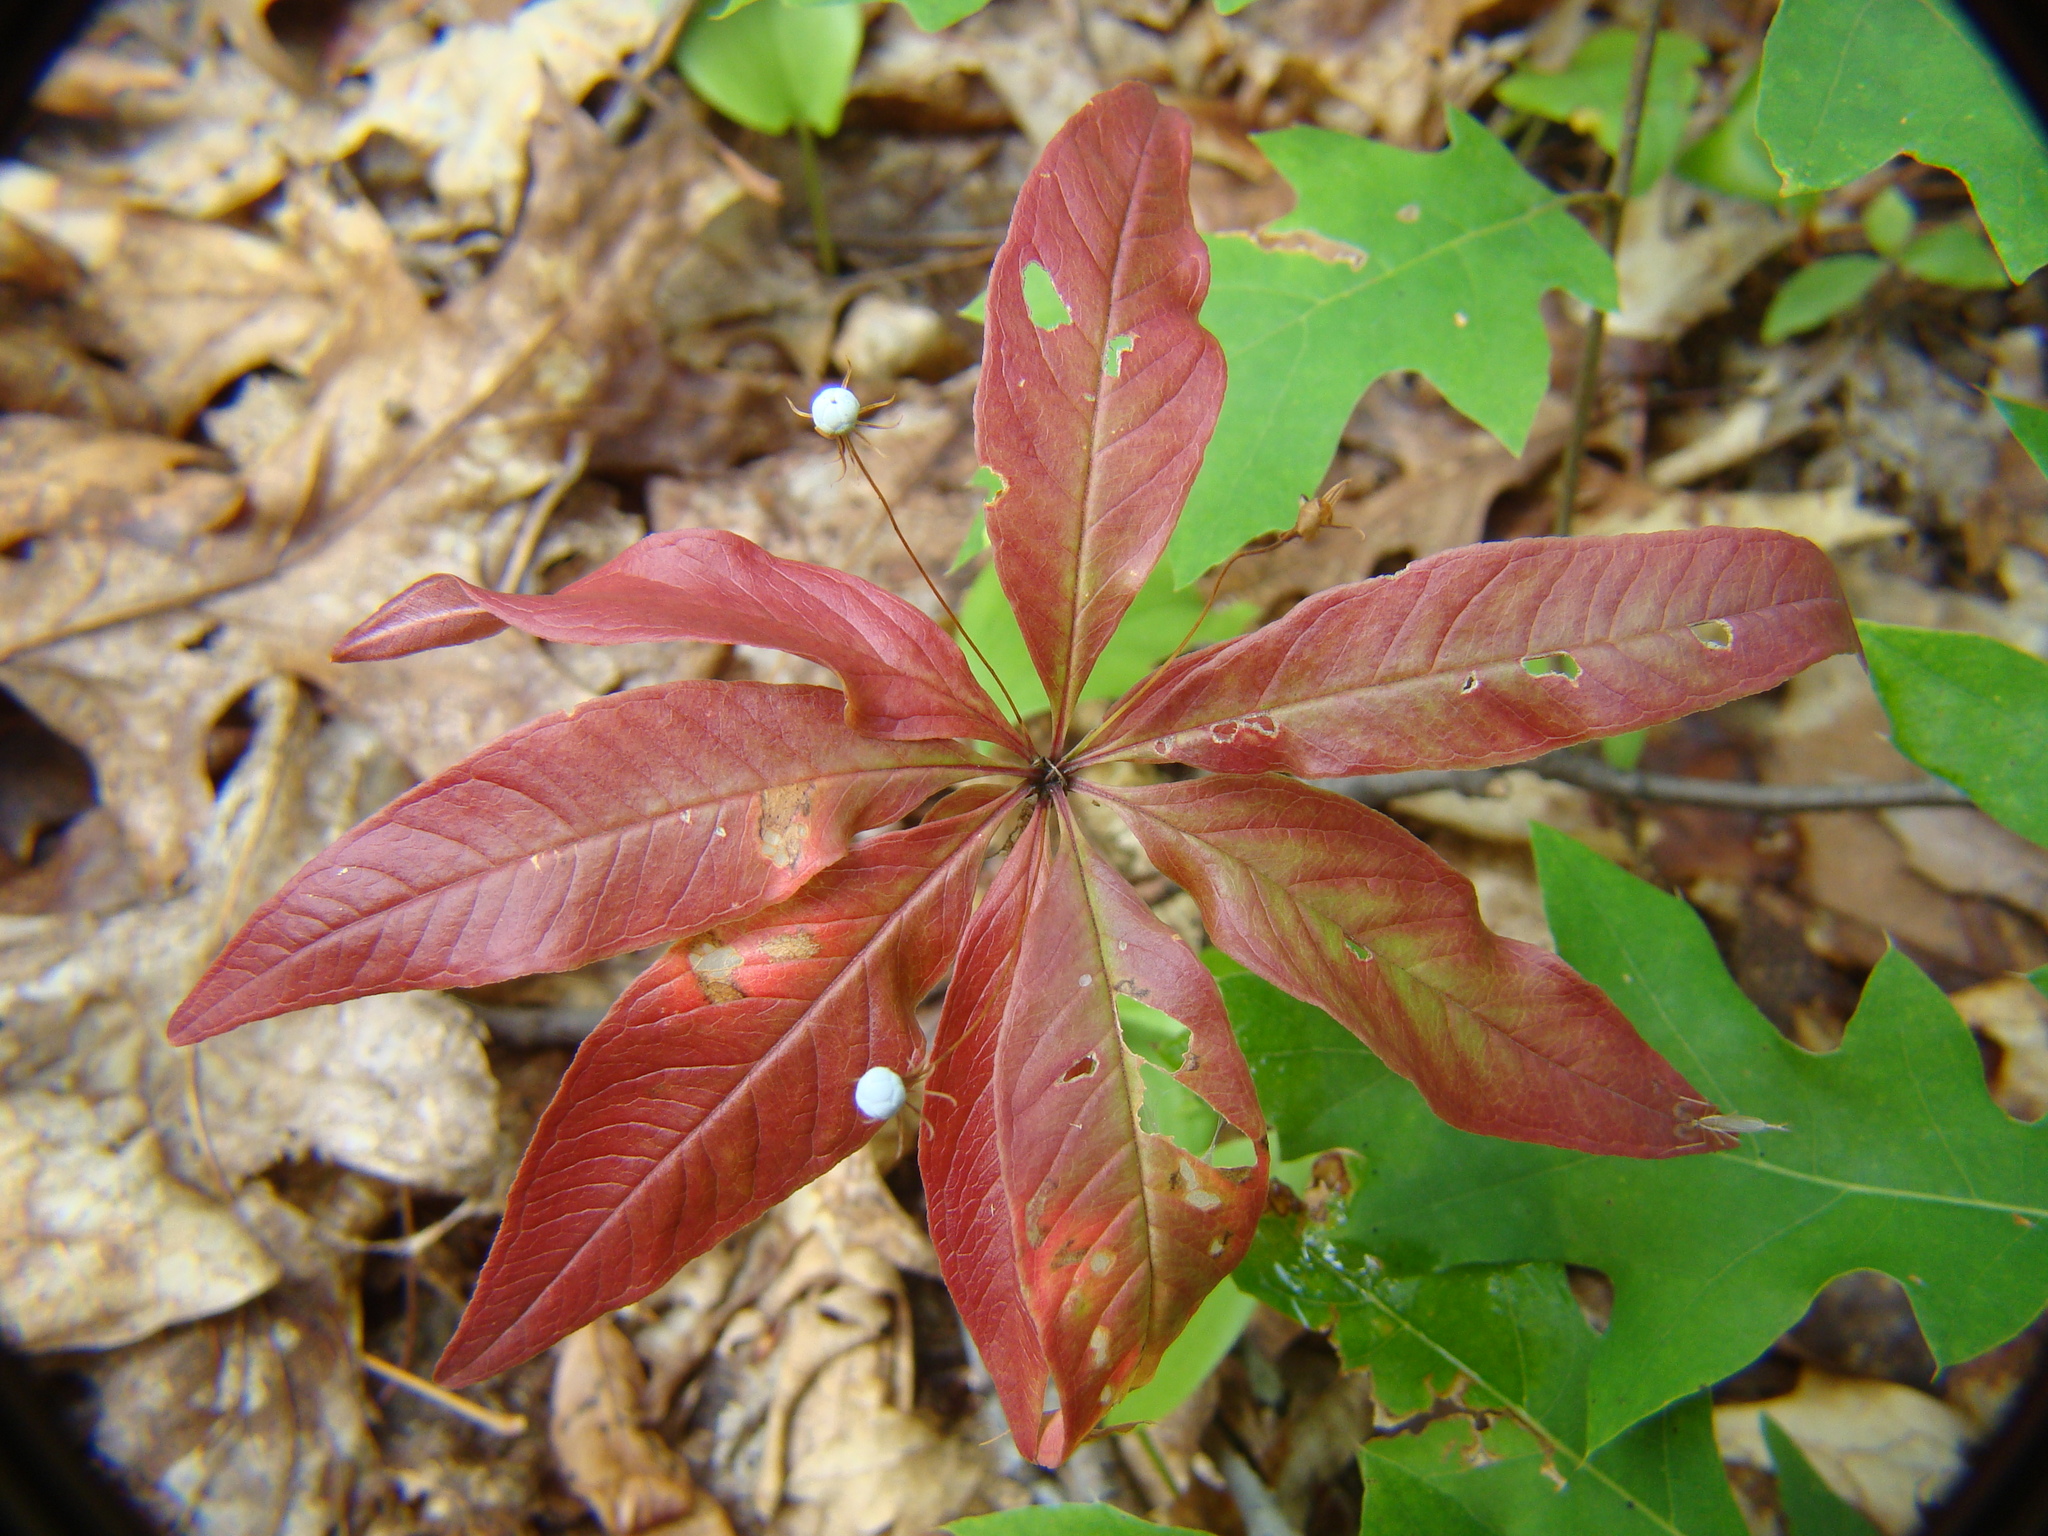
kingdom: Plantae
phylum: Tracheophyta
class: Magnoliopsida
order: Ericales
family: Primulaceae
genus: Lysimachia
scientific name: Lysimachia borealis
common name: American starflower
